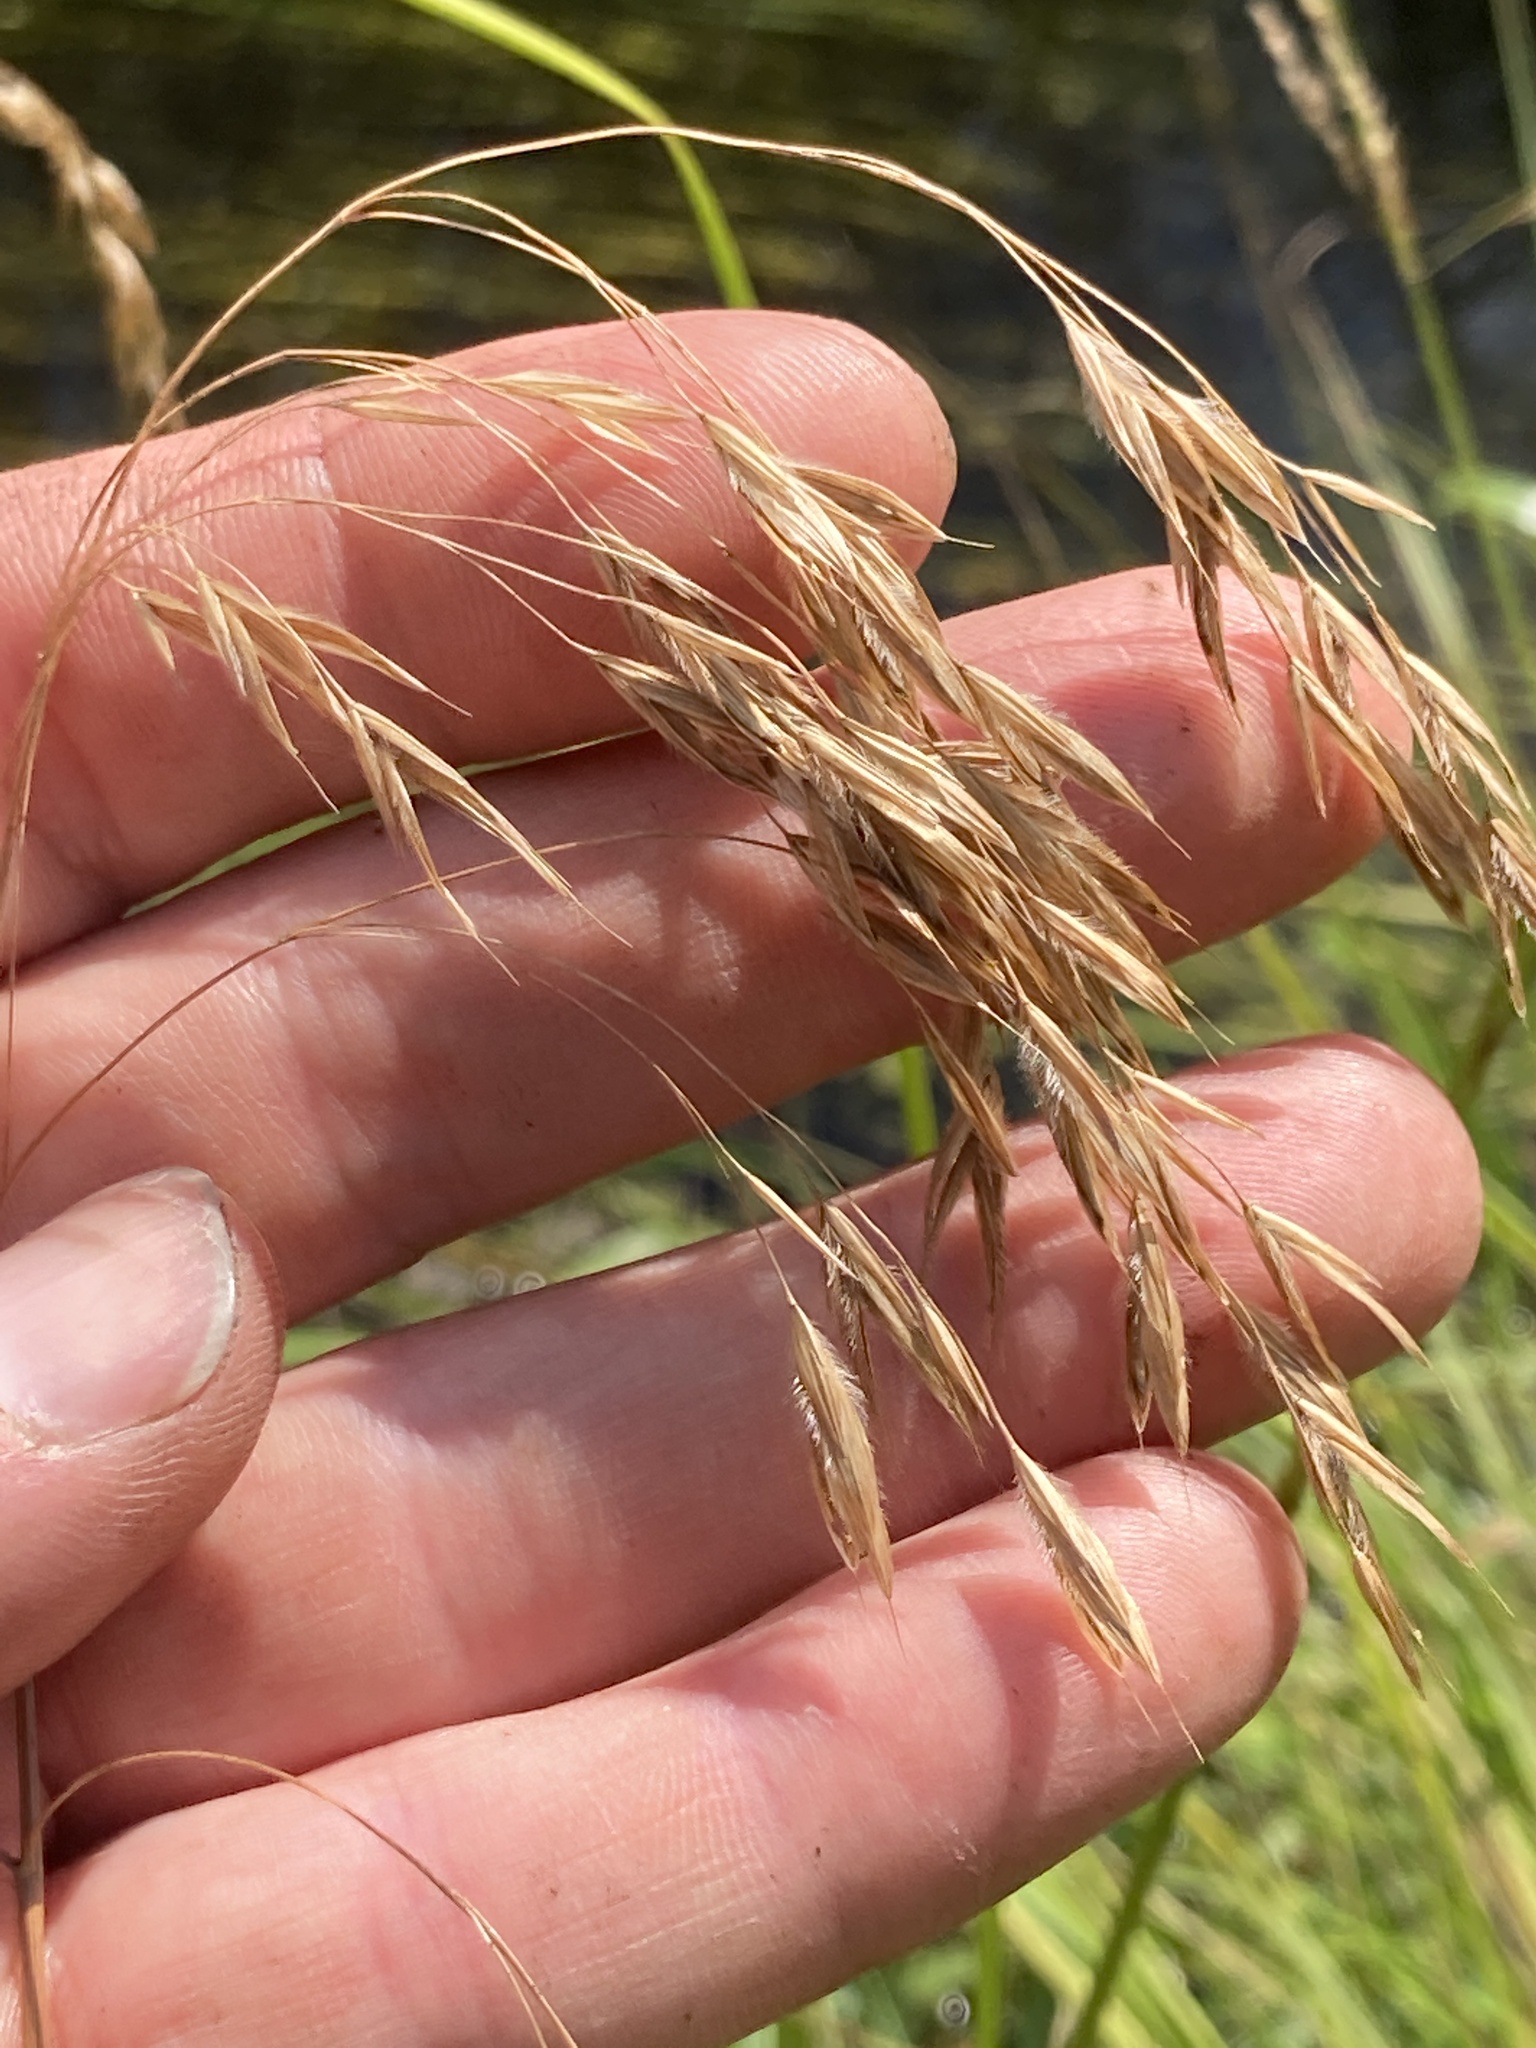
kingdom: Plantae
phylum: Tracheophyta
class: Liliopsida
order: Poales
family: Poaceae
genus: Bromus
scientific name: Bromus ciliatus
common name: Fringe brome
